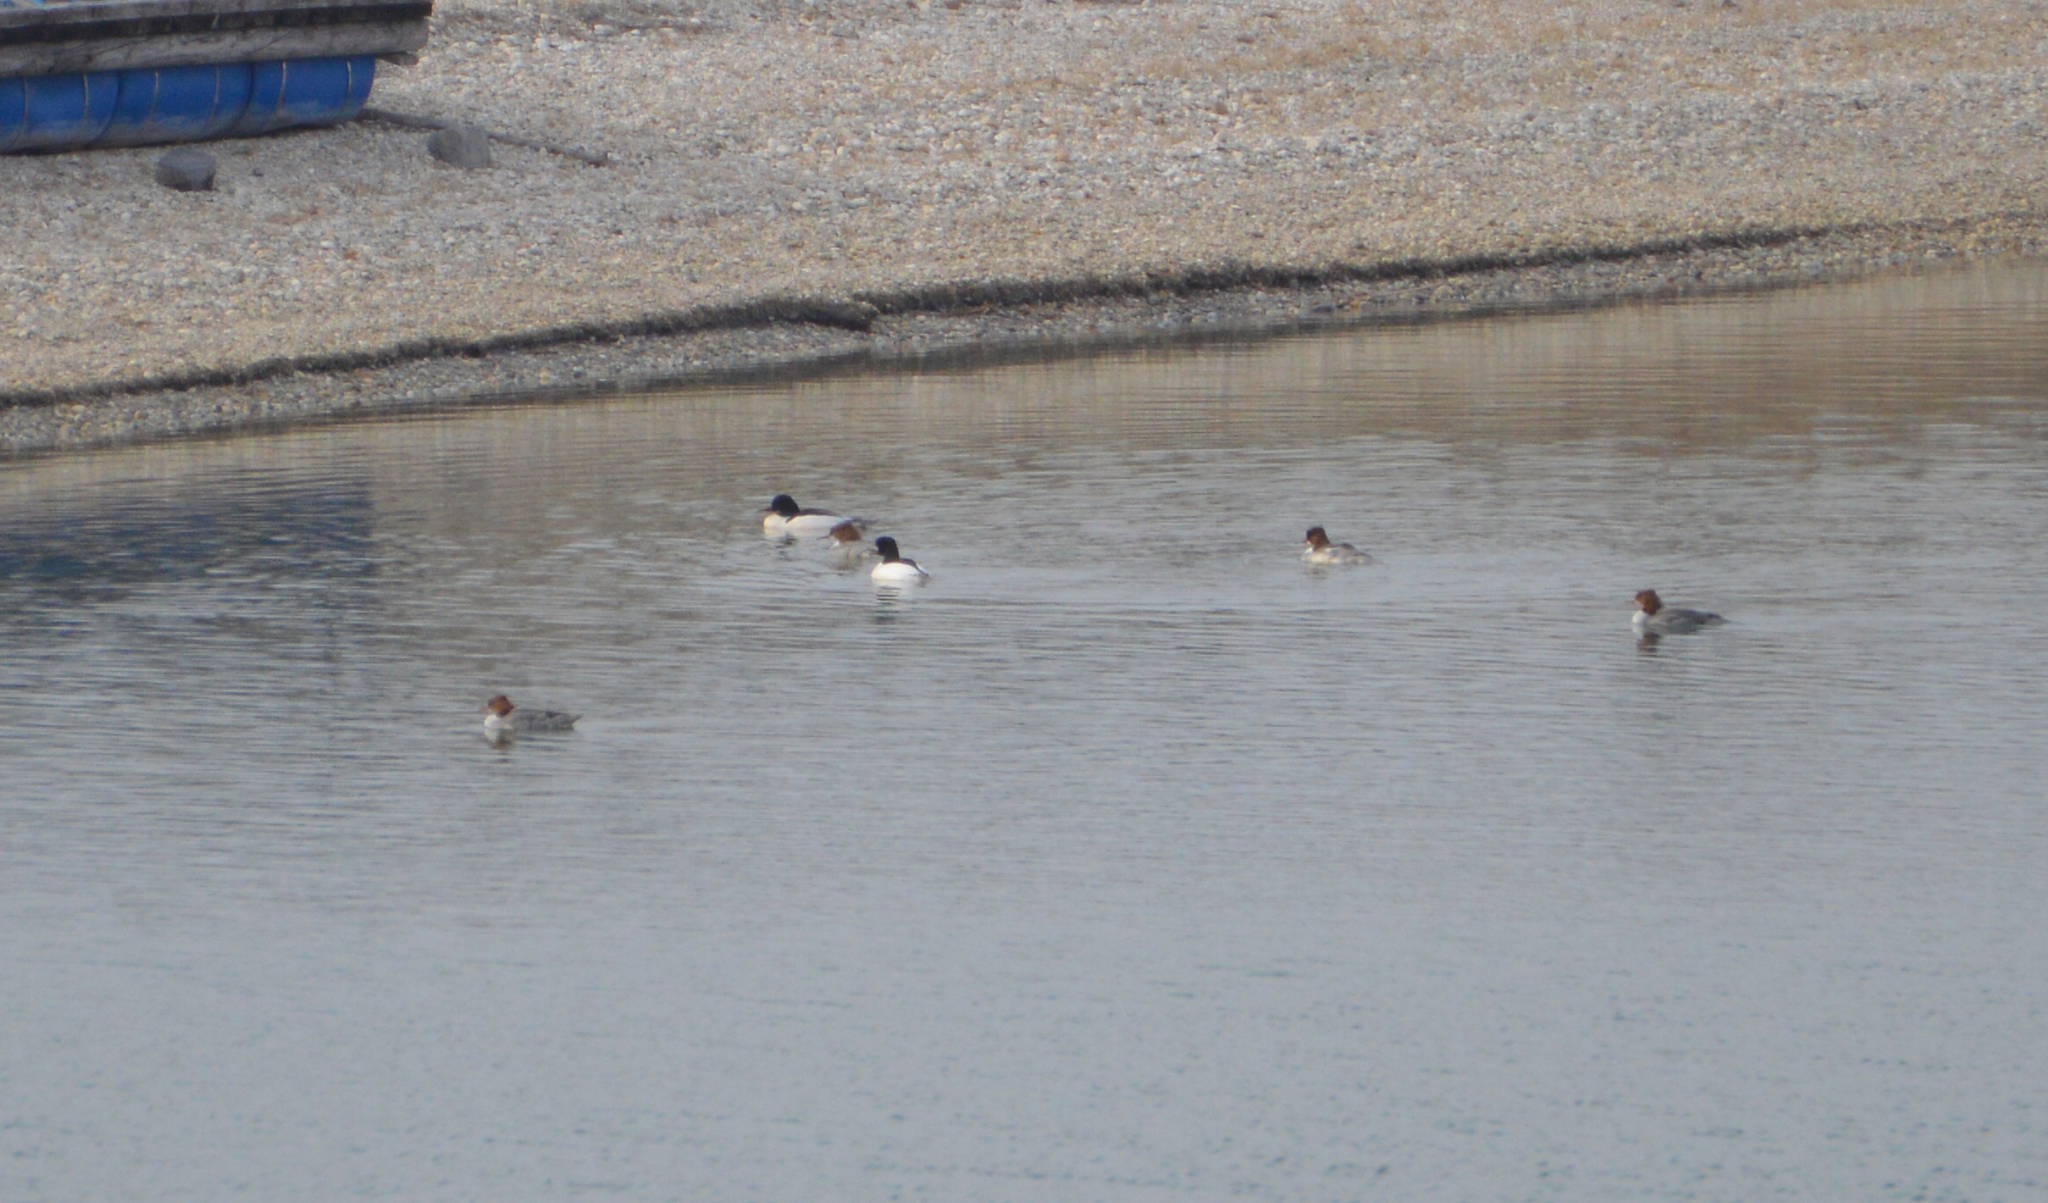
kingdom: Animalia
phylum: Chordata
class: Aves
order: Anseriformes
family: Anatidae
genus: Mergus
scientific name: Mergus merganser
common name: Common merganser
